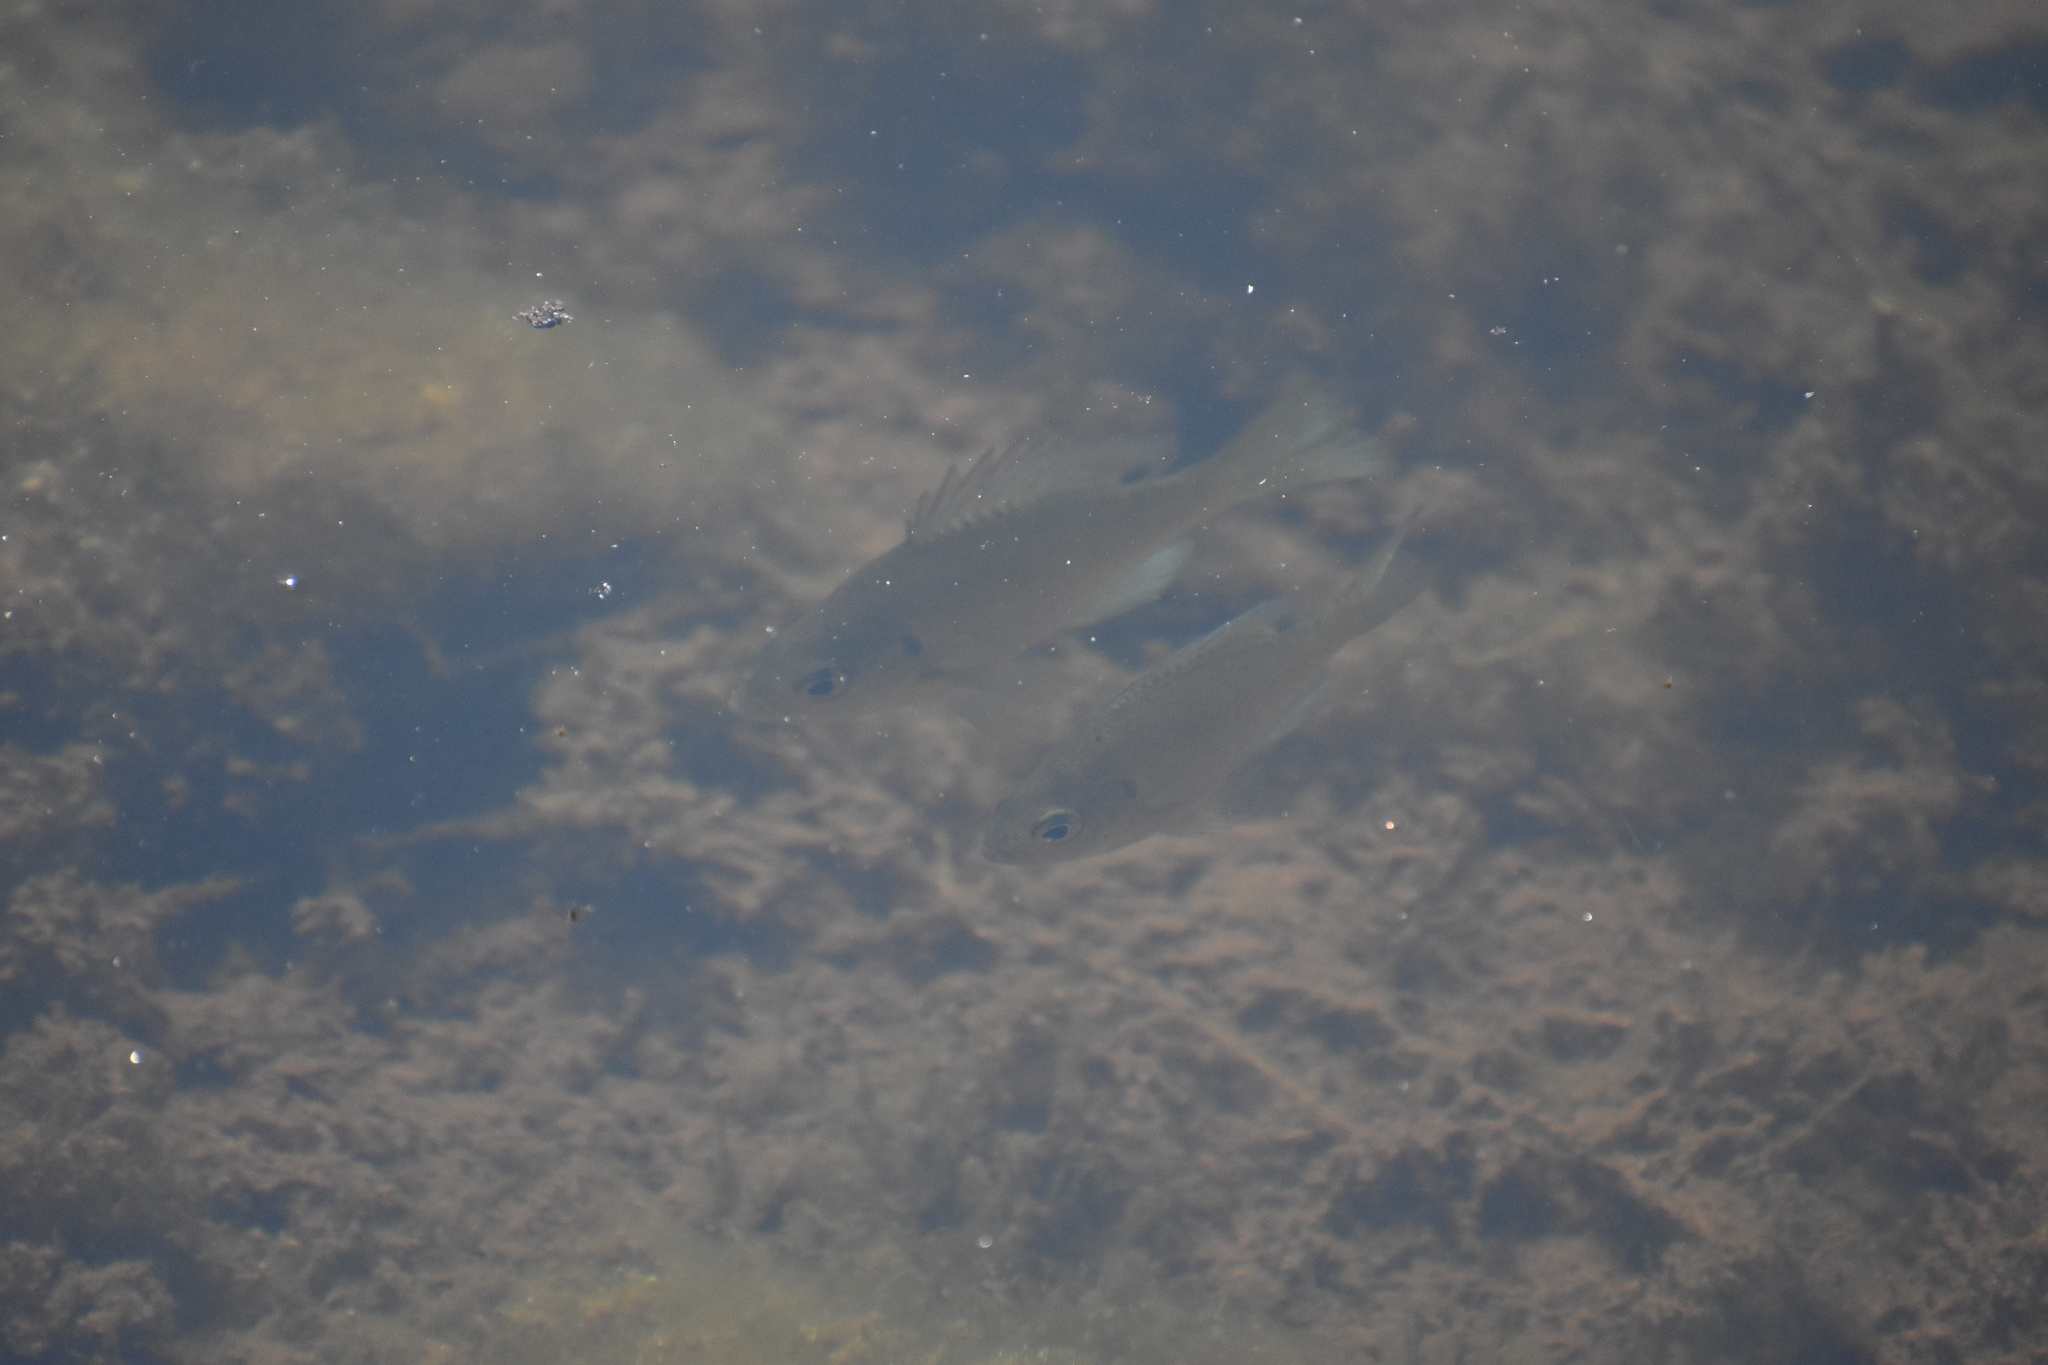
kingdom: Animalia
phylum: Chordata
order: Perciformes
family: Centrarchidae
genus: Lepomis
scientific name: Lepomis macrochirus
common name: Bluegill
